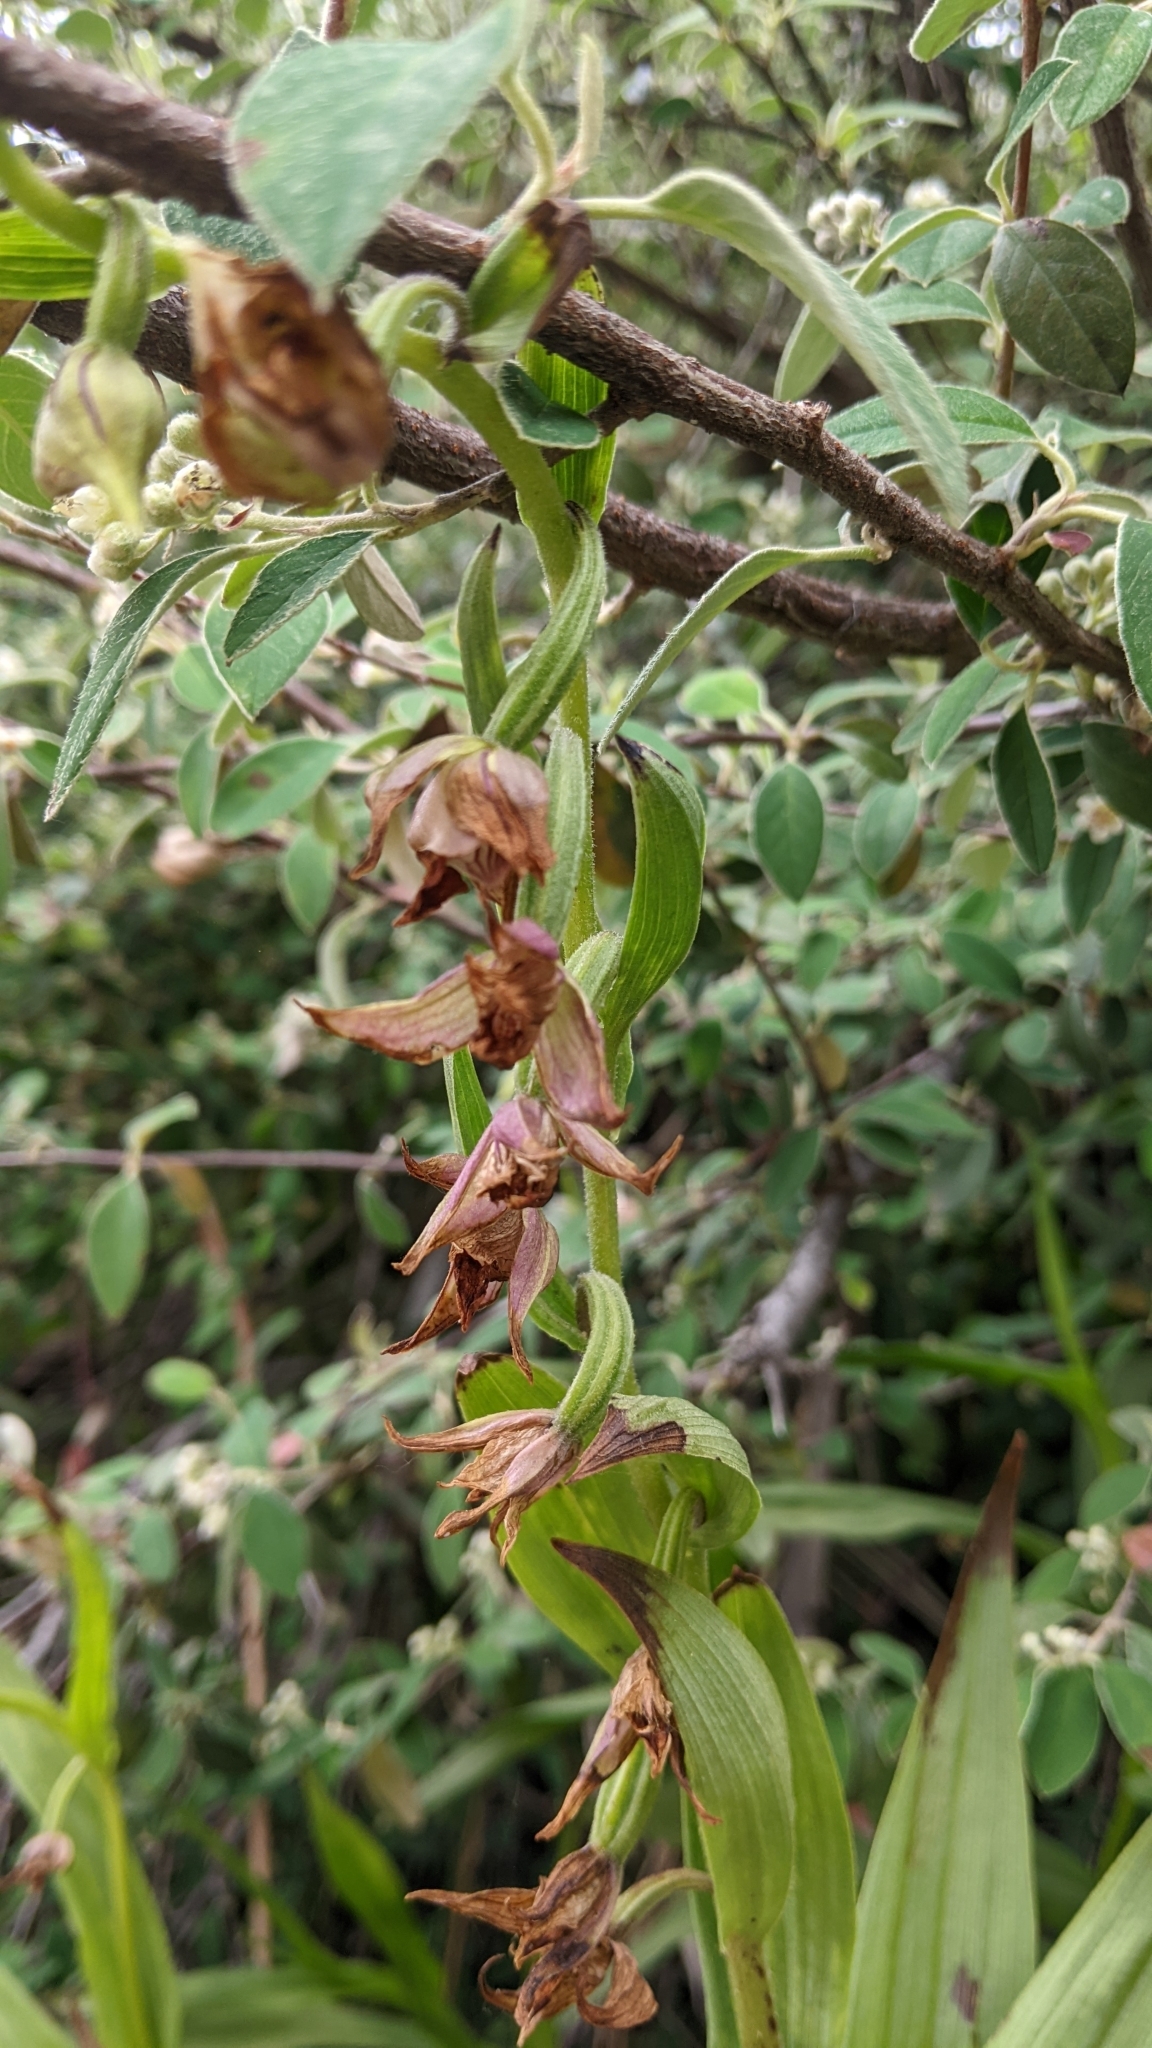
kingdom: Plantae
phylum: Tracheophyta
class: Liliopsida
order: Asparagales
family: Orchidaceae
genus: Epipactis
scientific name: Epipactis gigantea
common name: Chatterbox
